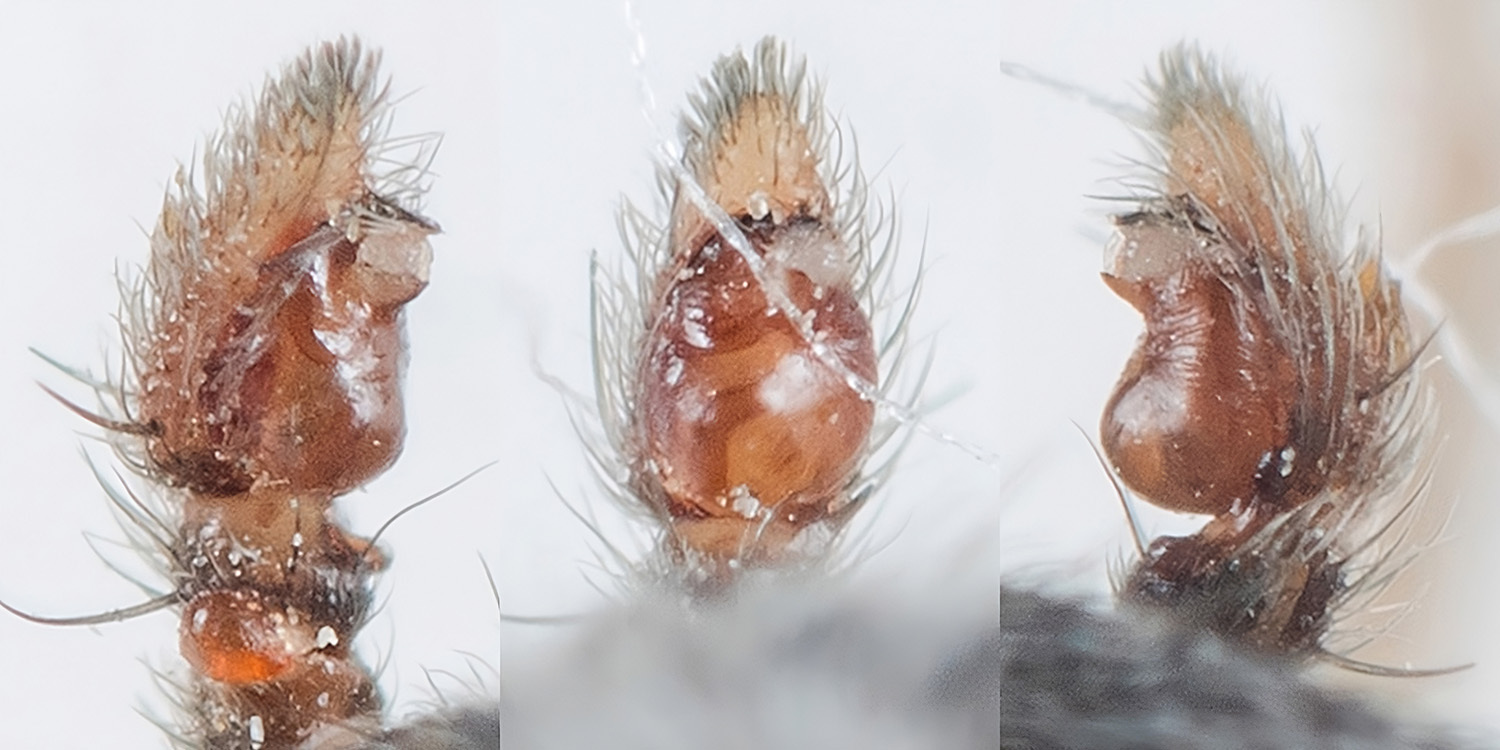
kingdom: Animalia
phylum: Arthropoda
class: Arachnida
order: Araneae
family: Philodromidae
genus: Thanatus
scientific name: Thanatus mikhailovi
